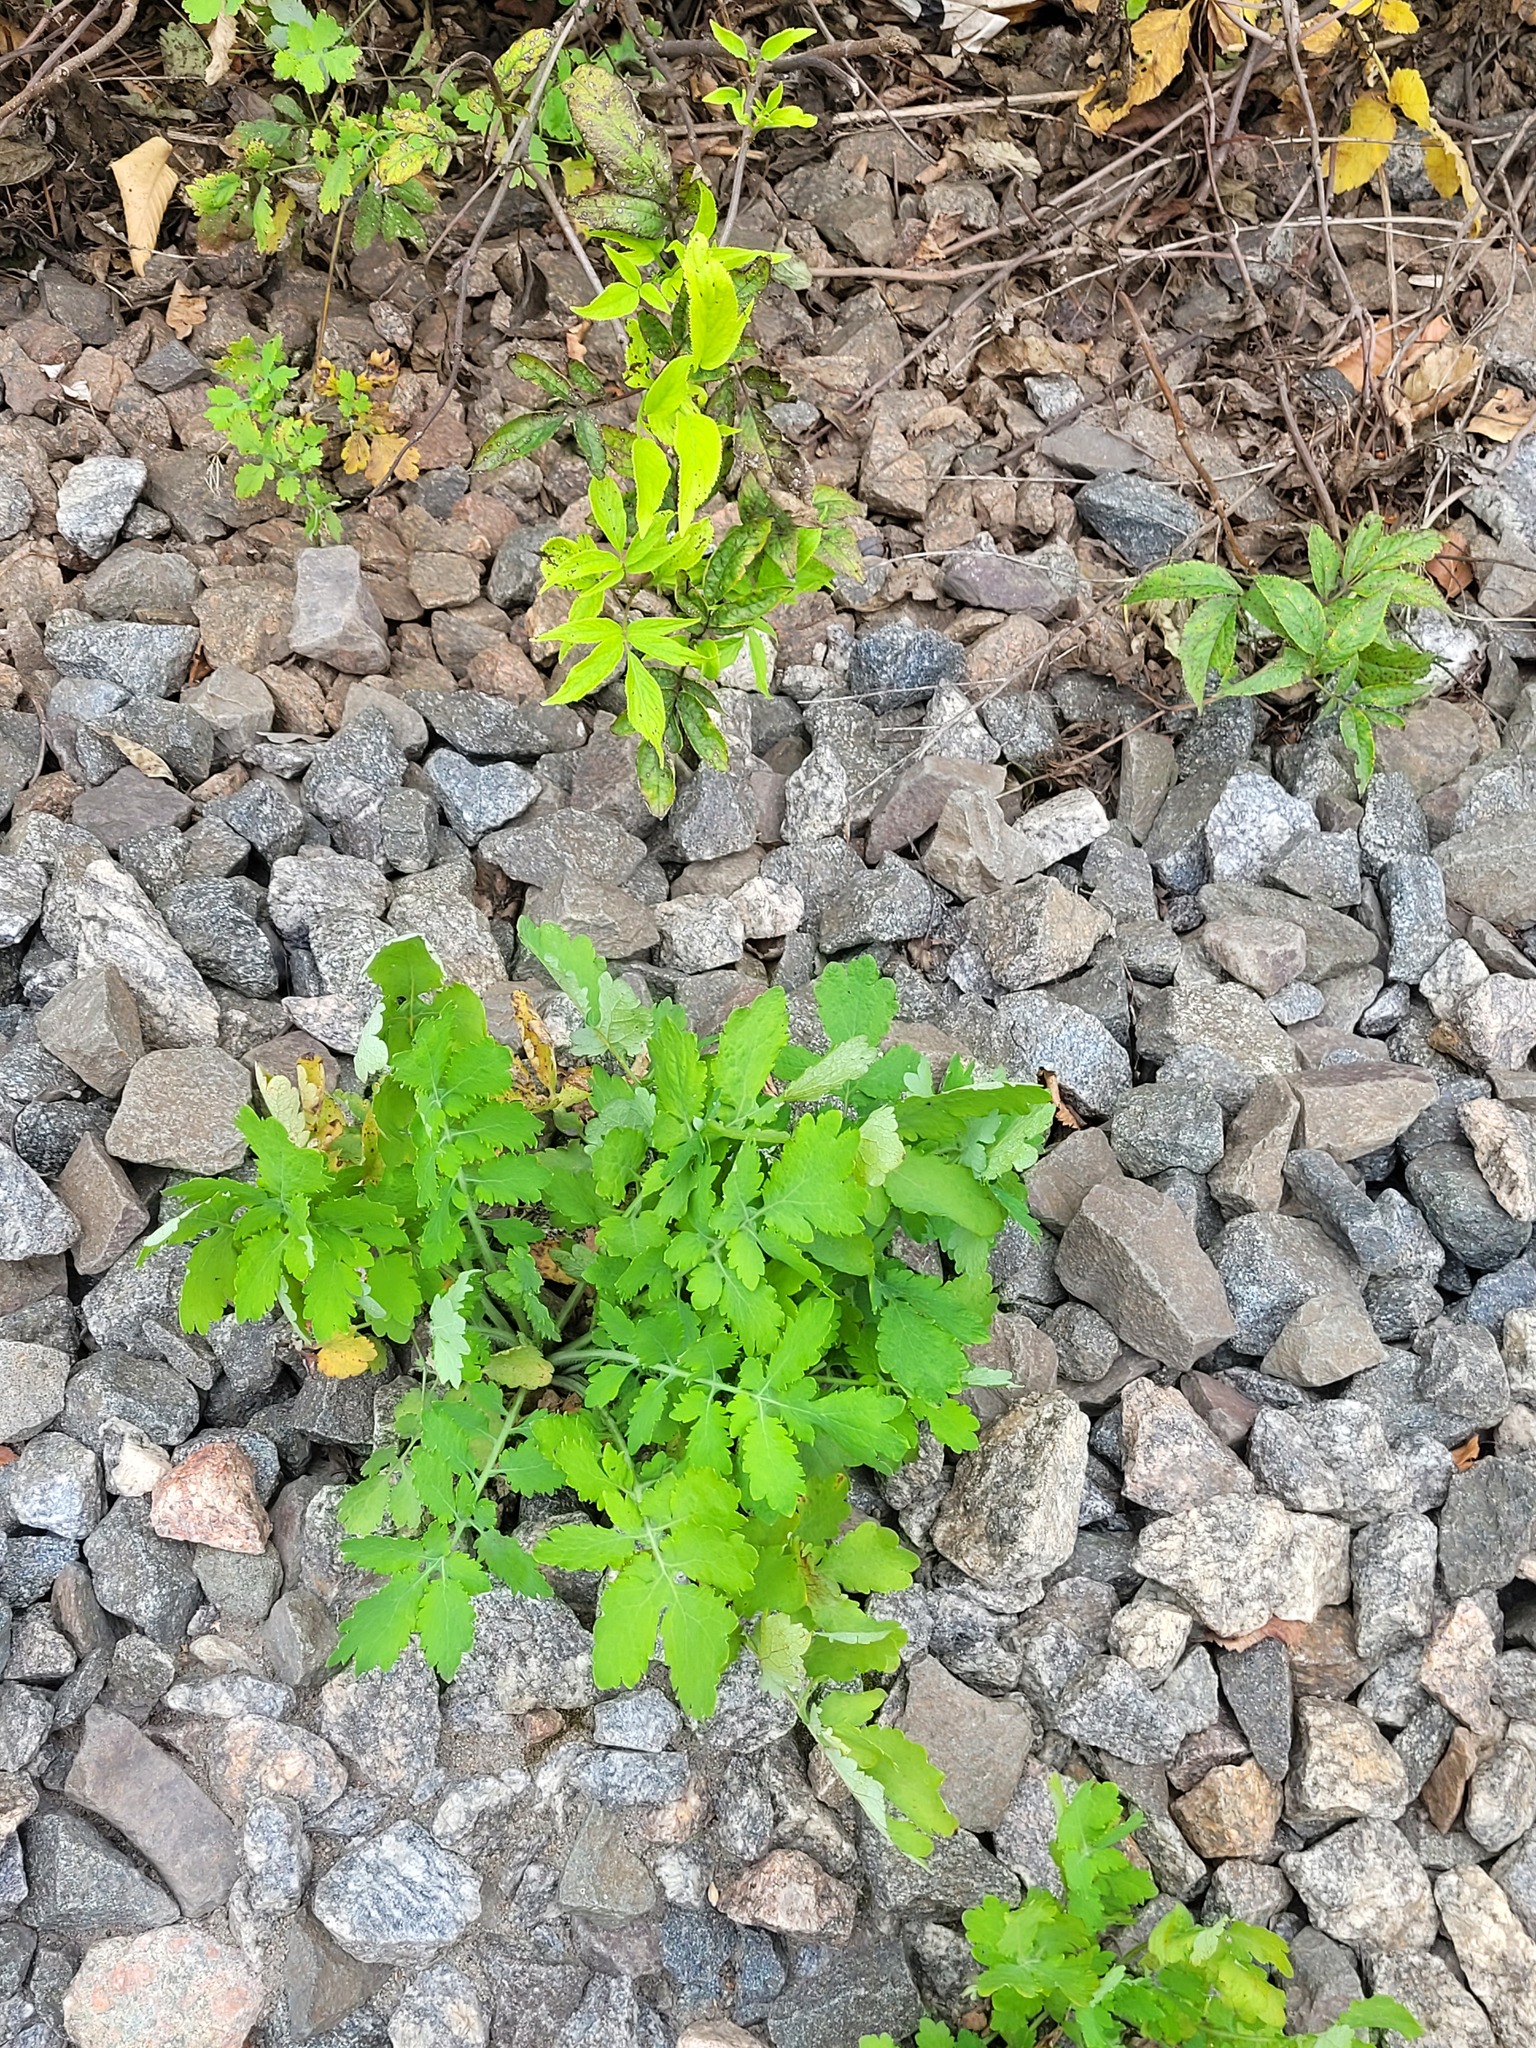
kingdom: Plantae
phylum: Tracheophyta
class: Magnoliopsida
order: Ranunculales
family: Papaveraceae
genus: Chelidonium
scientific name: Chelidonium majus
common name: Greater celandine
